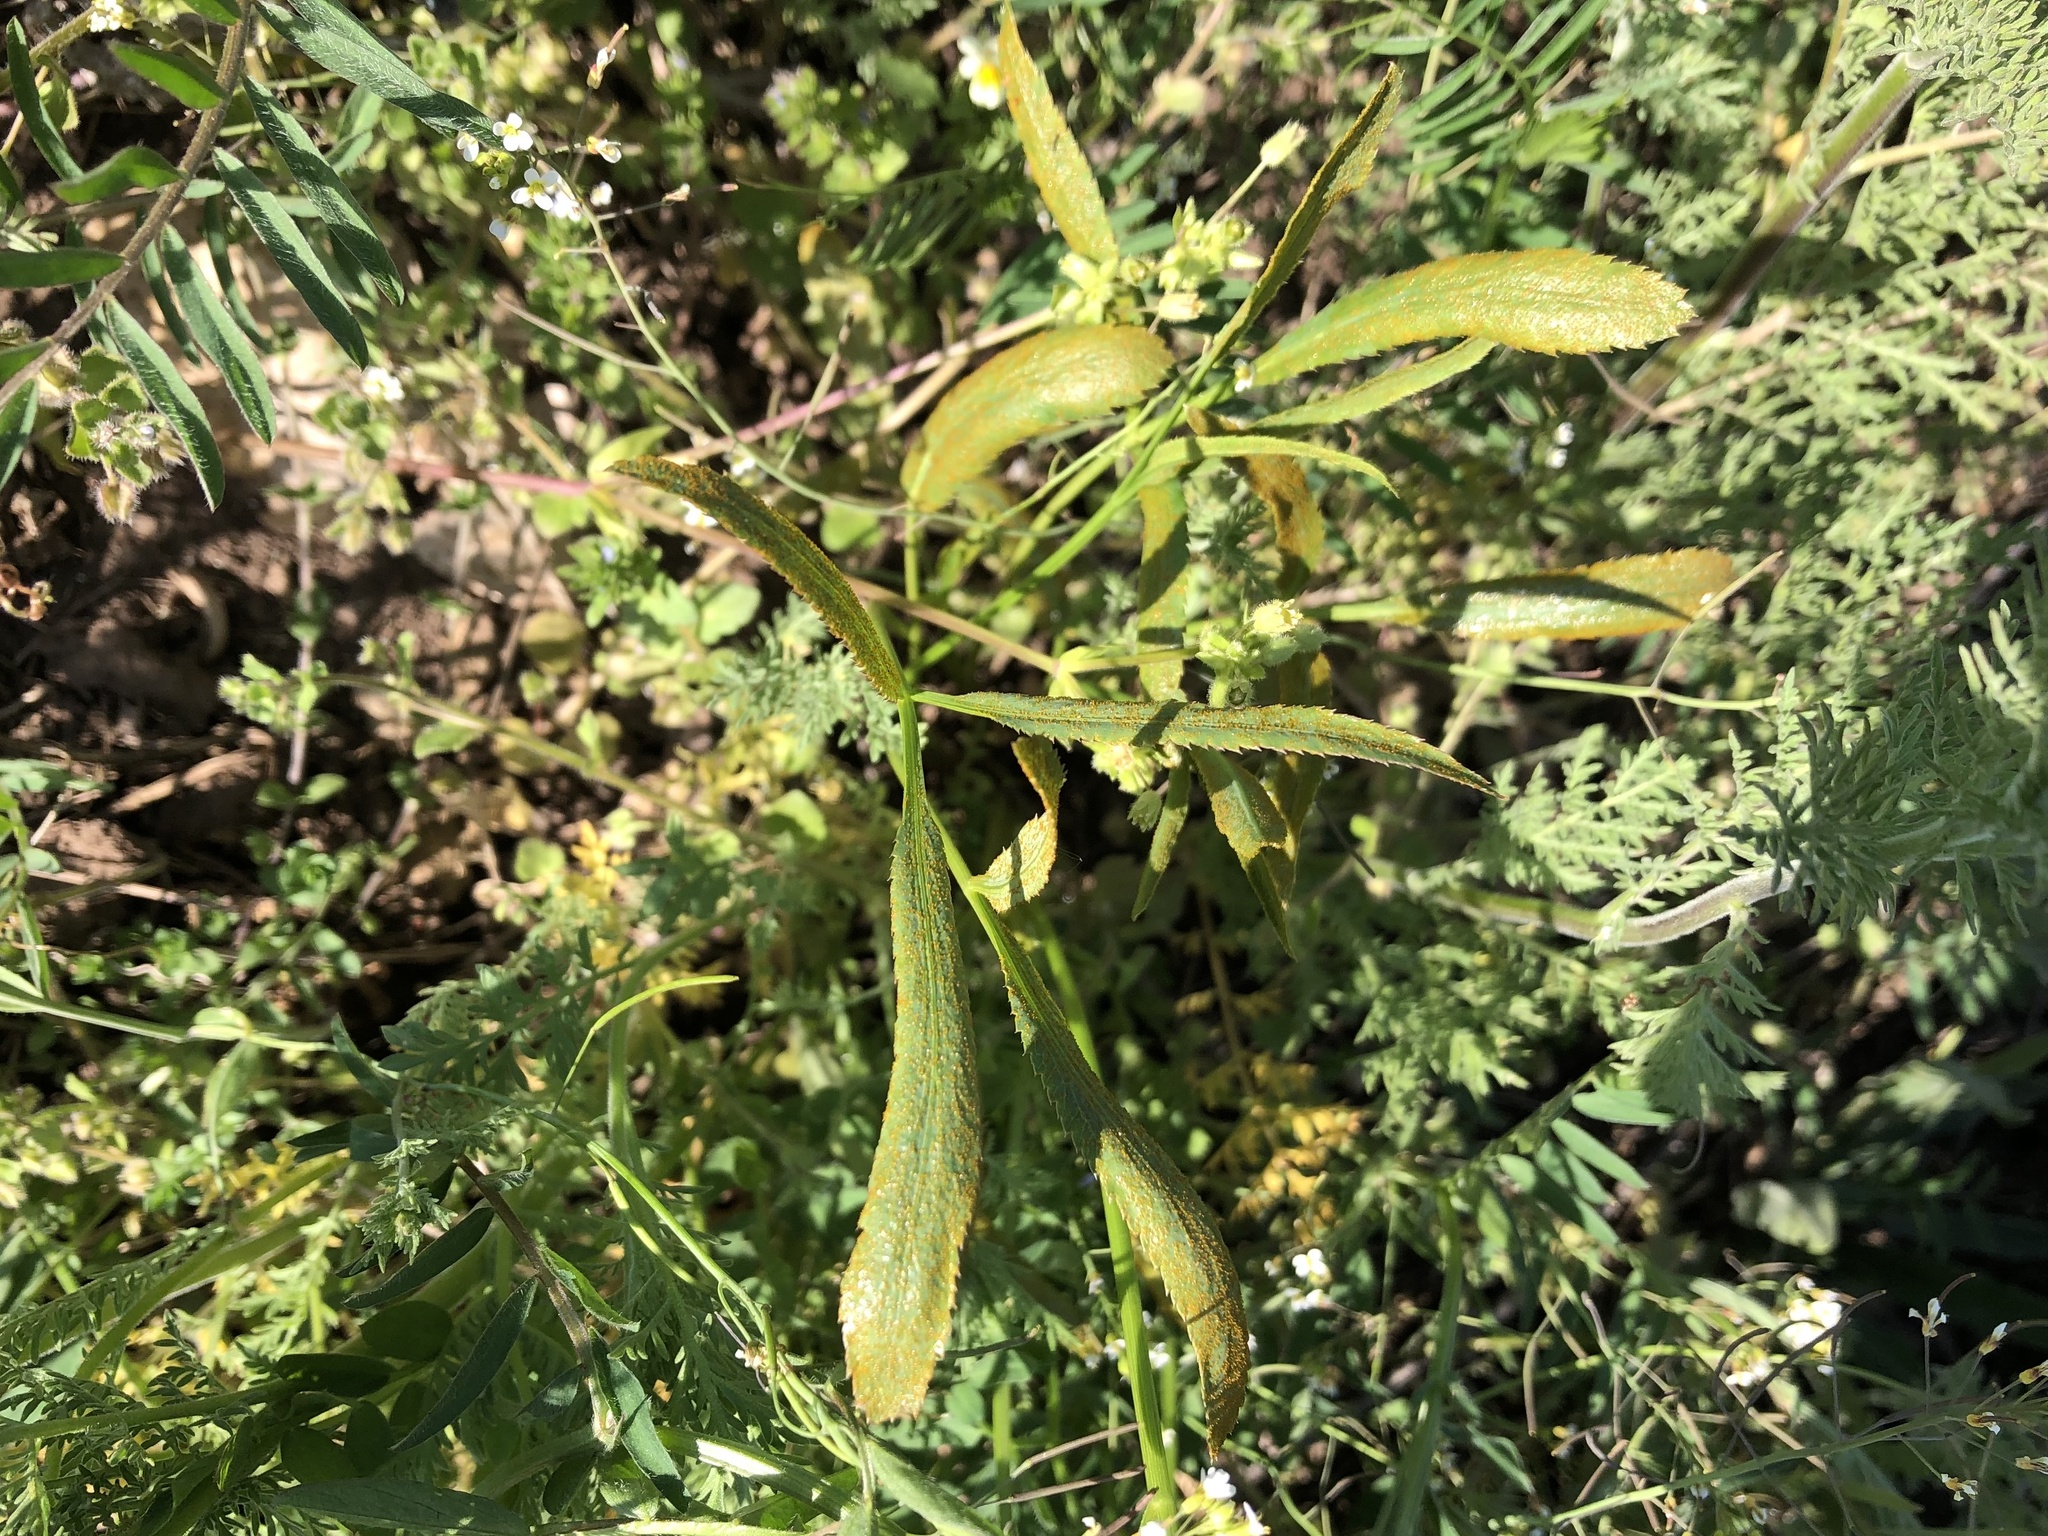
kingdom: Plantae
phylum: Tracheophyta
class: Magnoliopsida
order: Apiales
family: Apiaceae
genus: Falcaria
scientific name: Falcaria vulgaris
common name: Longleaf
